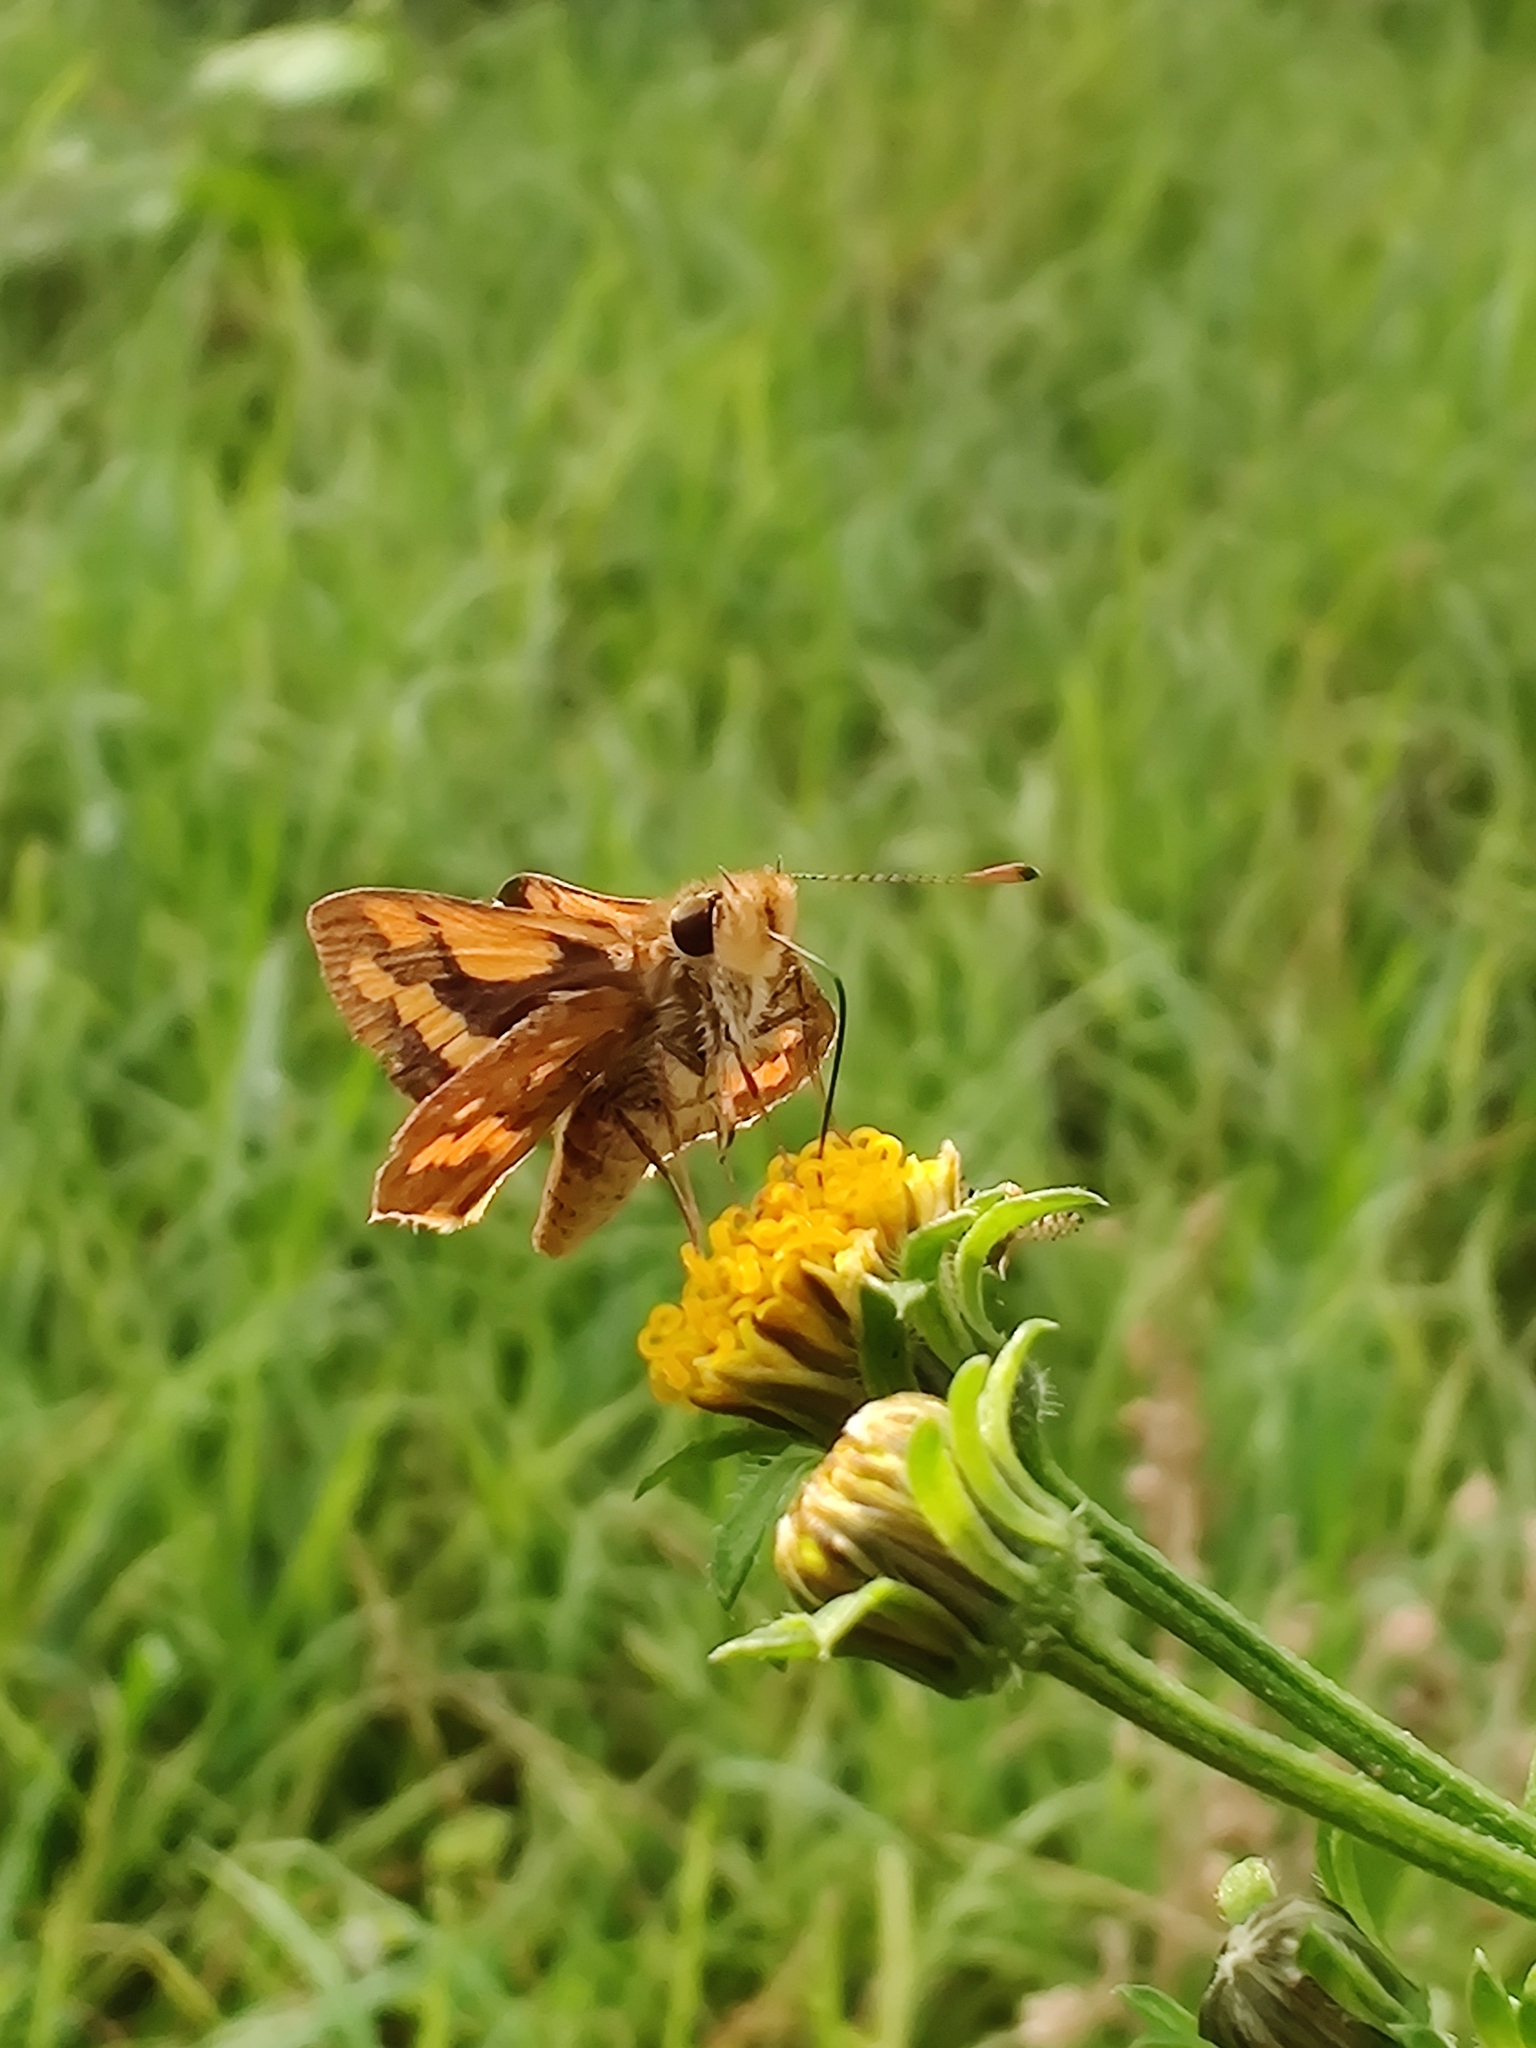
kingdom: Animalia
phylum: Arthropoda
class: Insecta
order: Lepidoptera
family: Hesperiidae
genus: Ocybadistes
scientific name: Ocybadistes walkeri
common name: Yellow-banded dart
